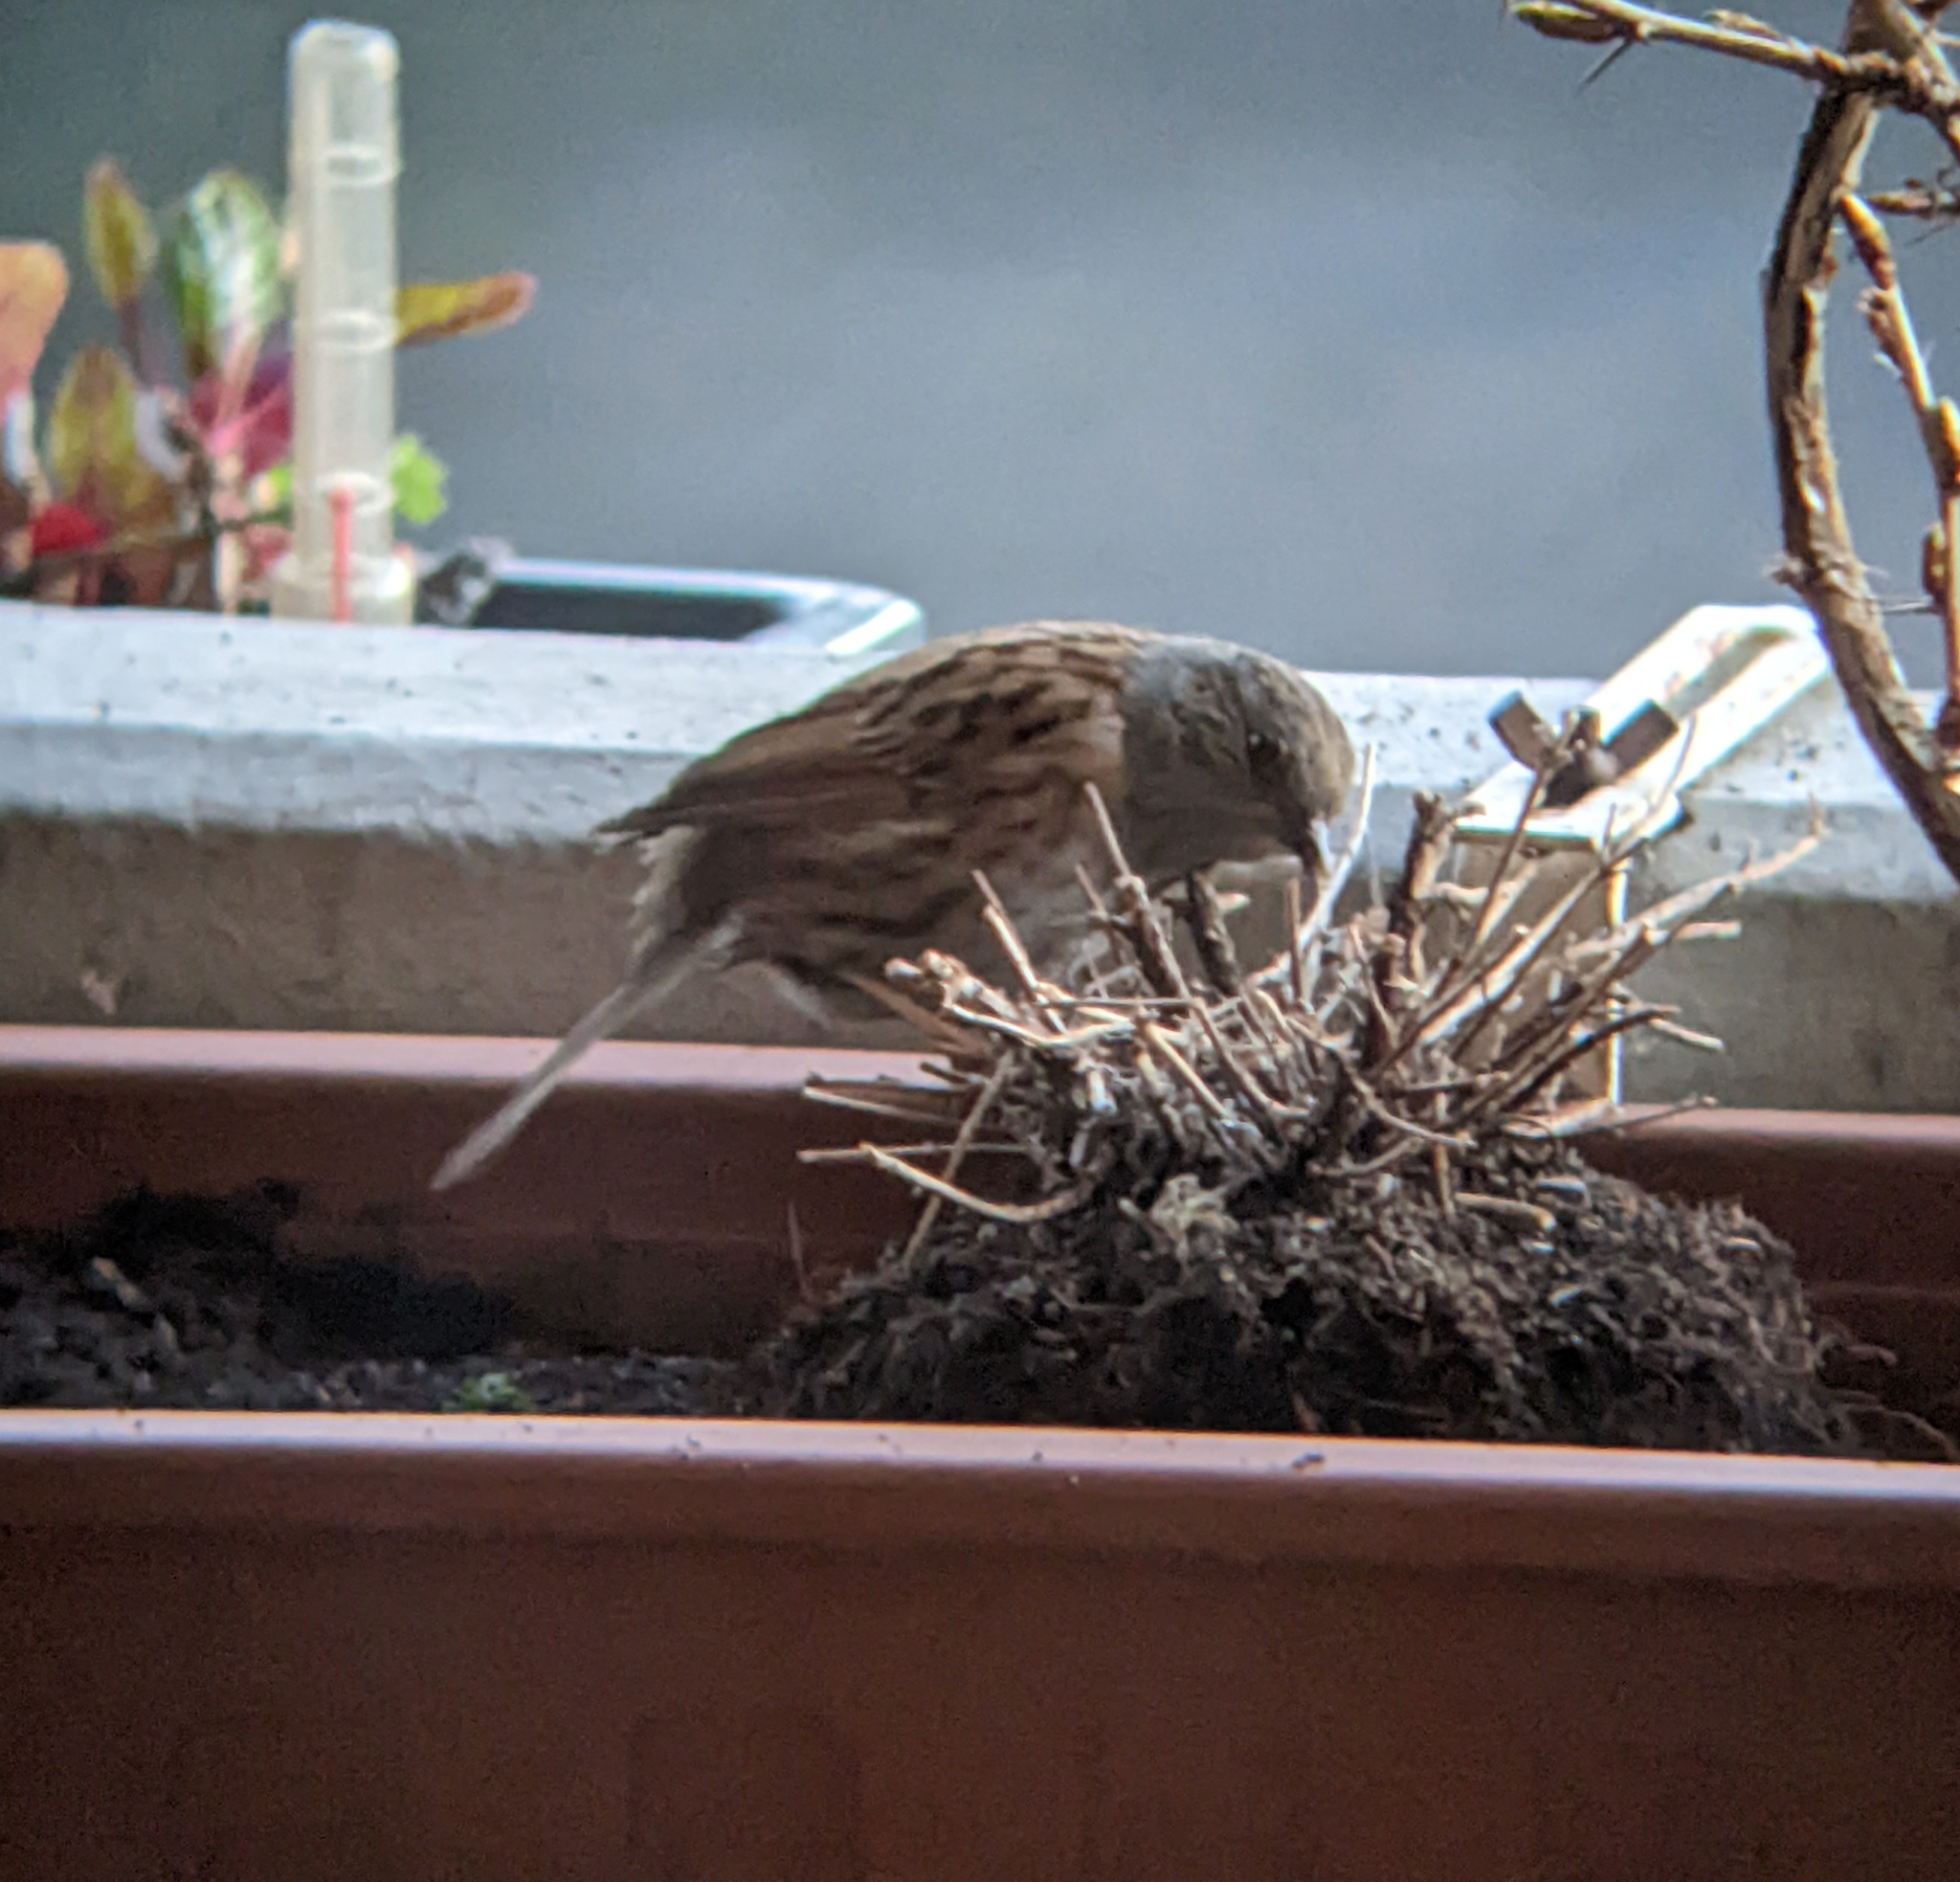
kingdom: Animalia
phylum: Chordata
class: Aves
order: Passeriformes
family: Prunellidae
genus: Prunella
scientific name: Prunella modularis
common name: Dunnock
